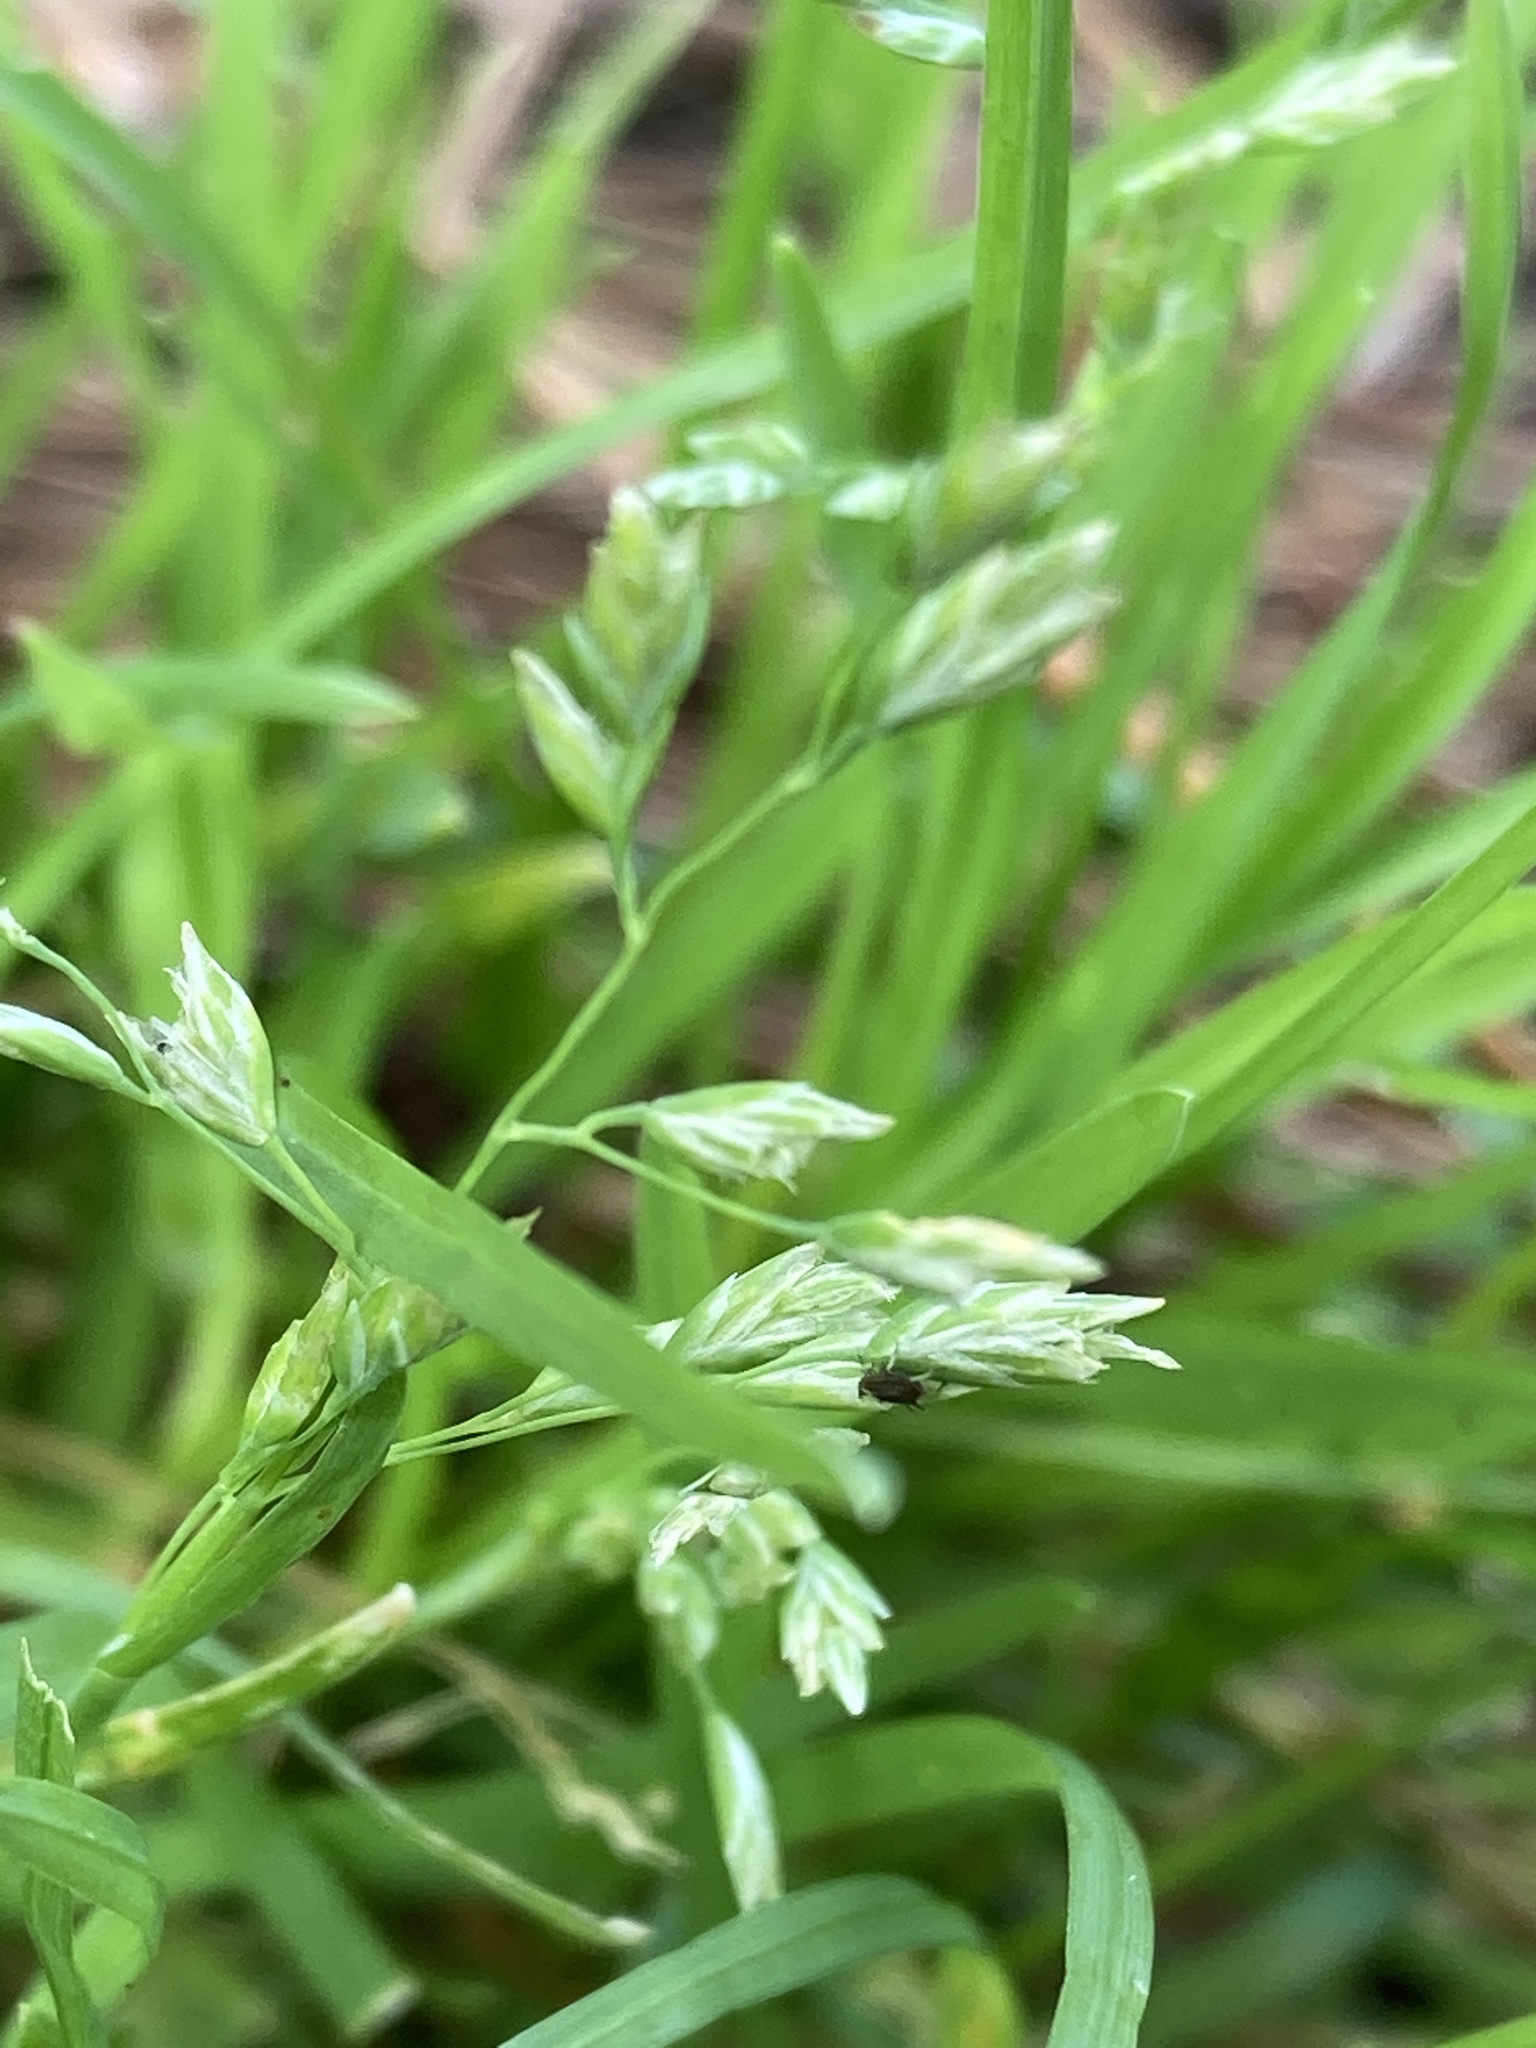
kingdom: Plantae
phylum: Tracheophyta
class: Liliopsida
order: Poales
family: Poaceae
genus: Poa
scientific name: Poa annua
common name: Annual bluegrass
